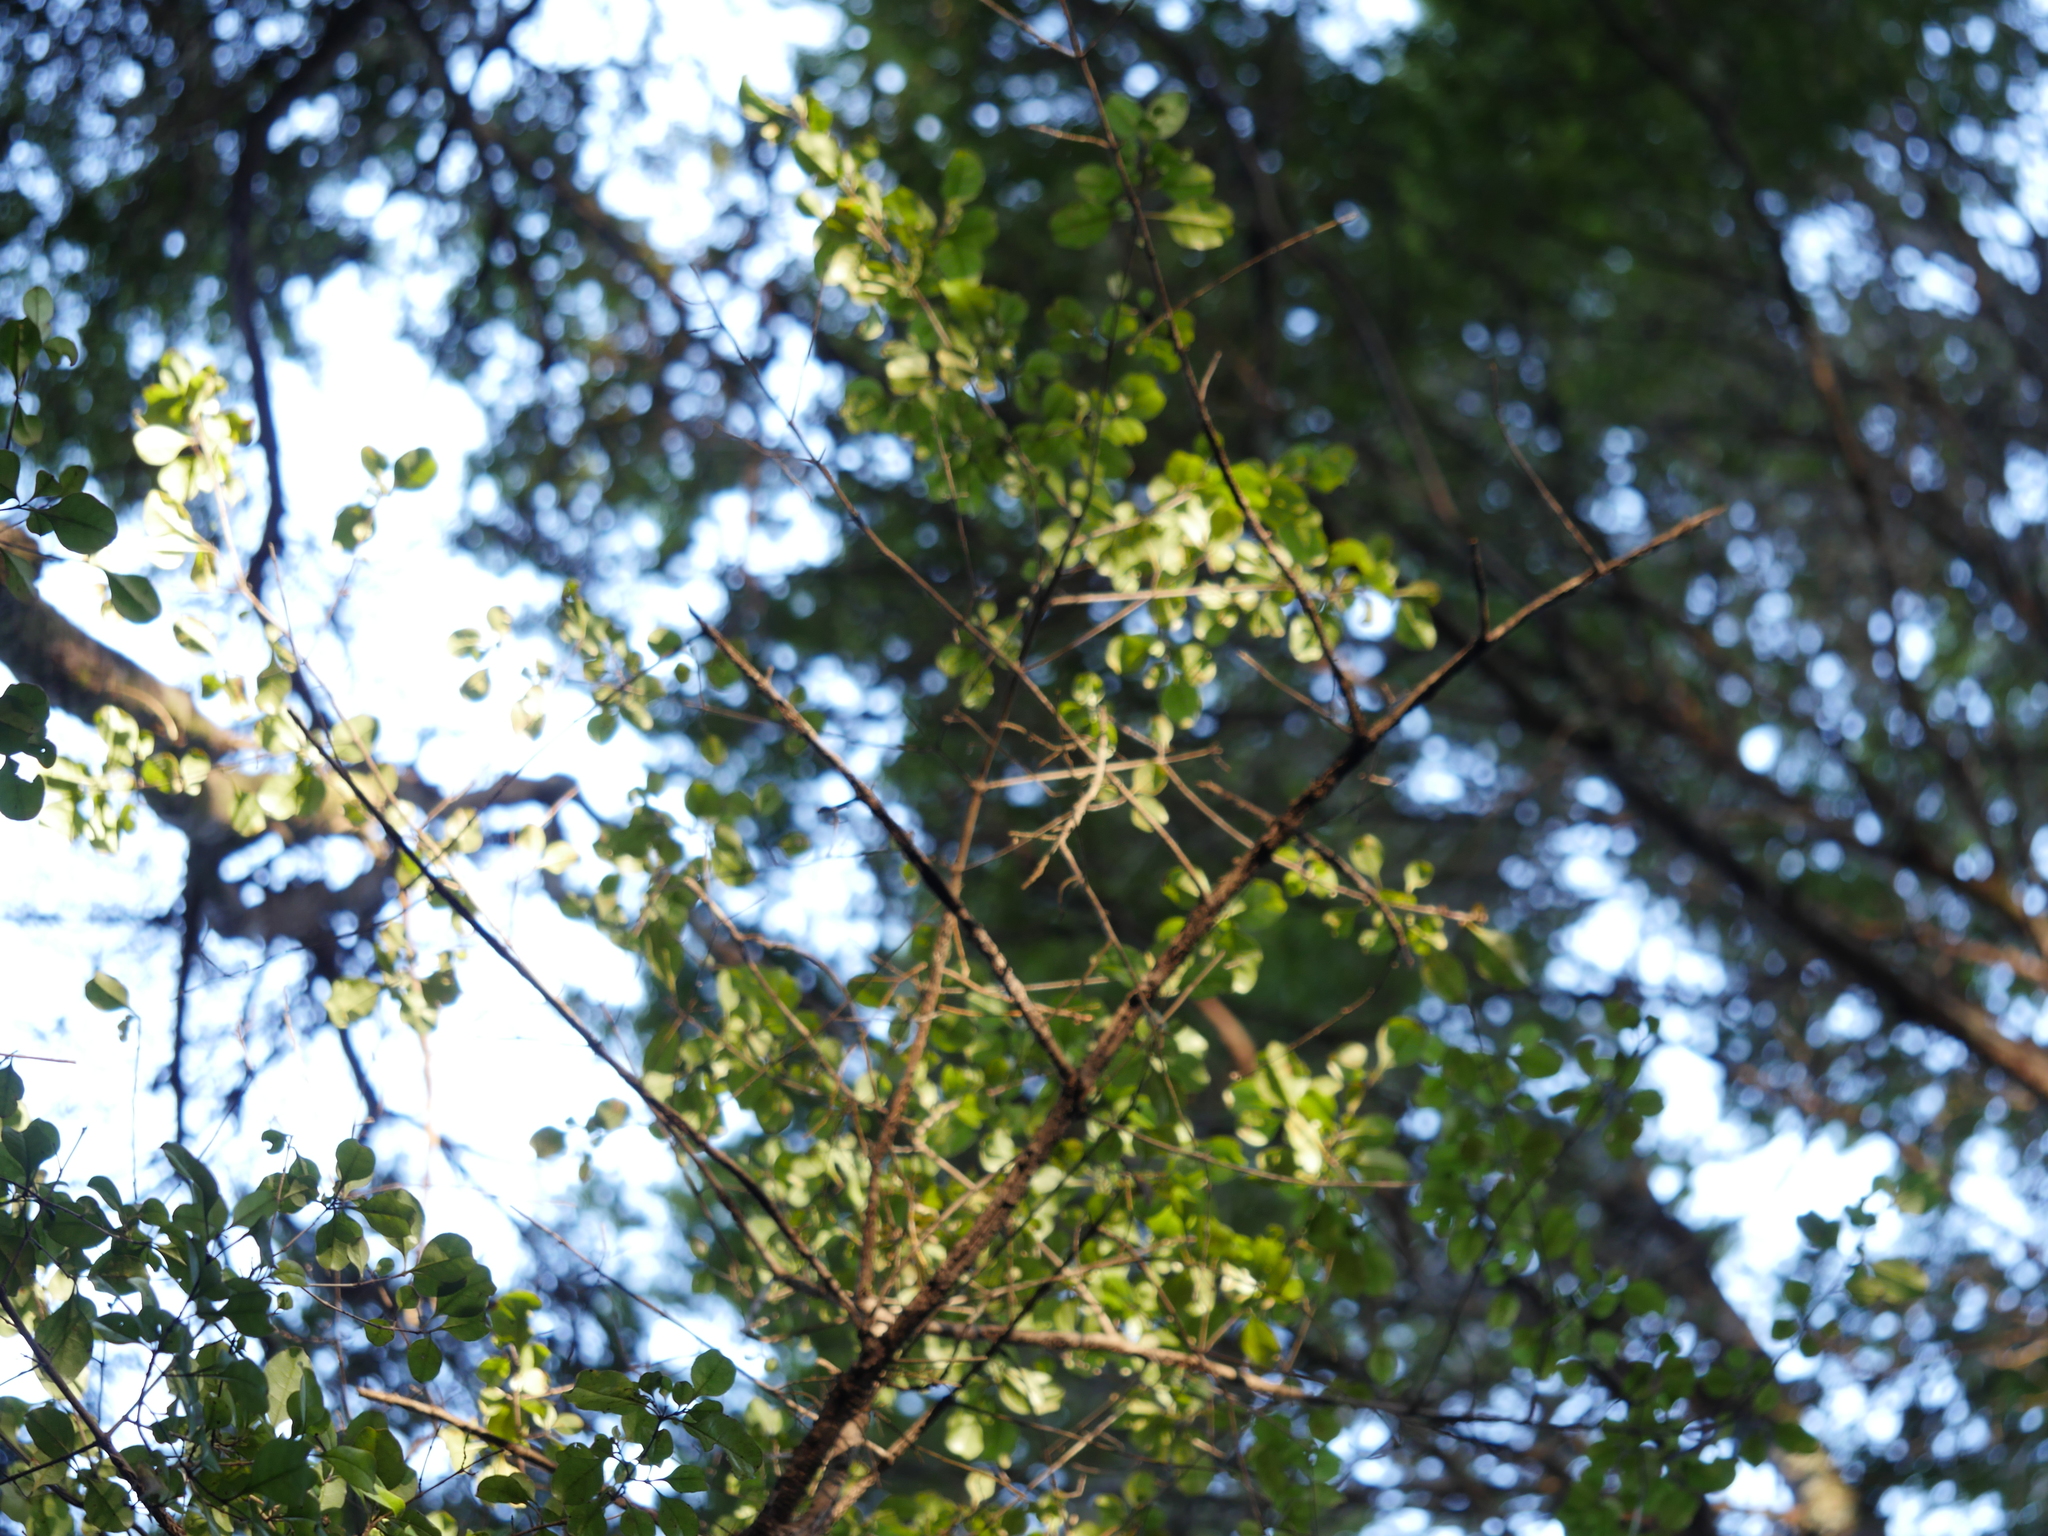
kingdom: Plantae
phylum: Tracheophyta
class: Magnoliopsida
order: Gentianales
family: Rubiaceae
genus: Coprosma
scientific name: Coprosma arborea
